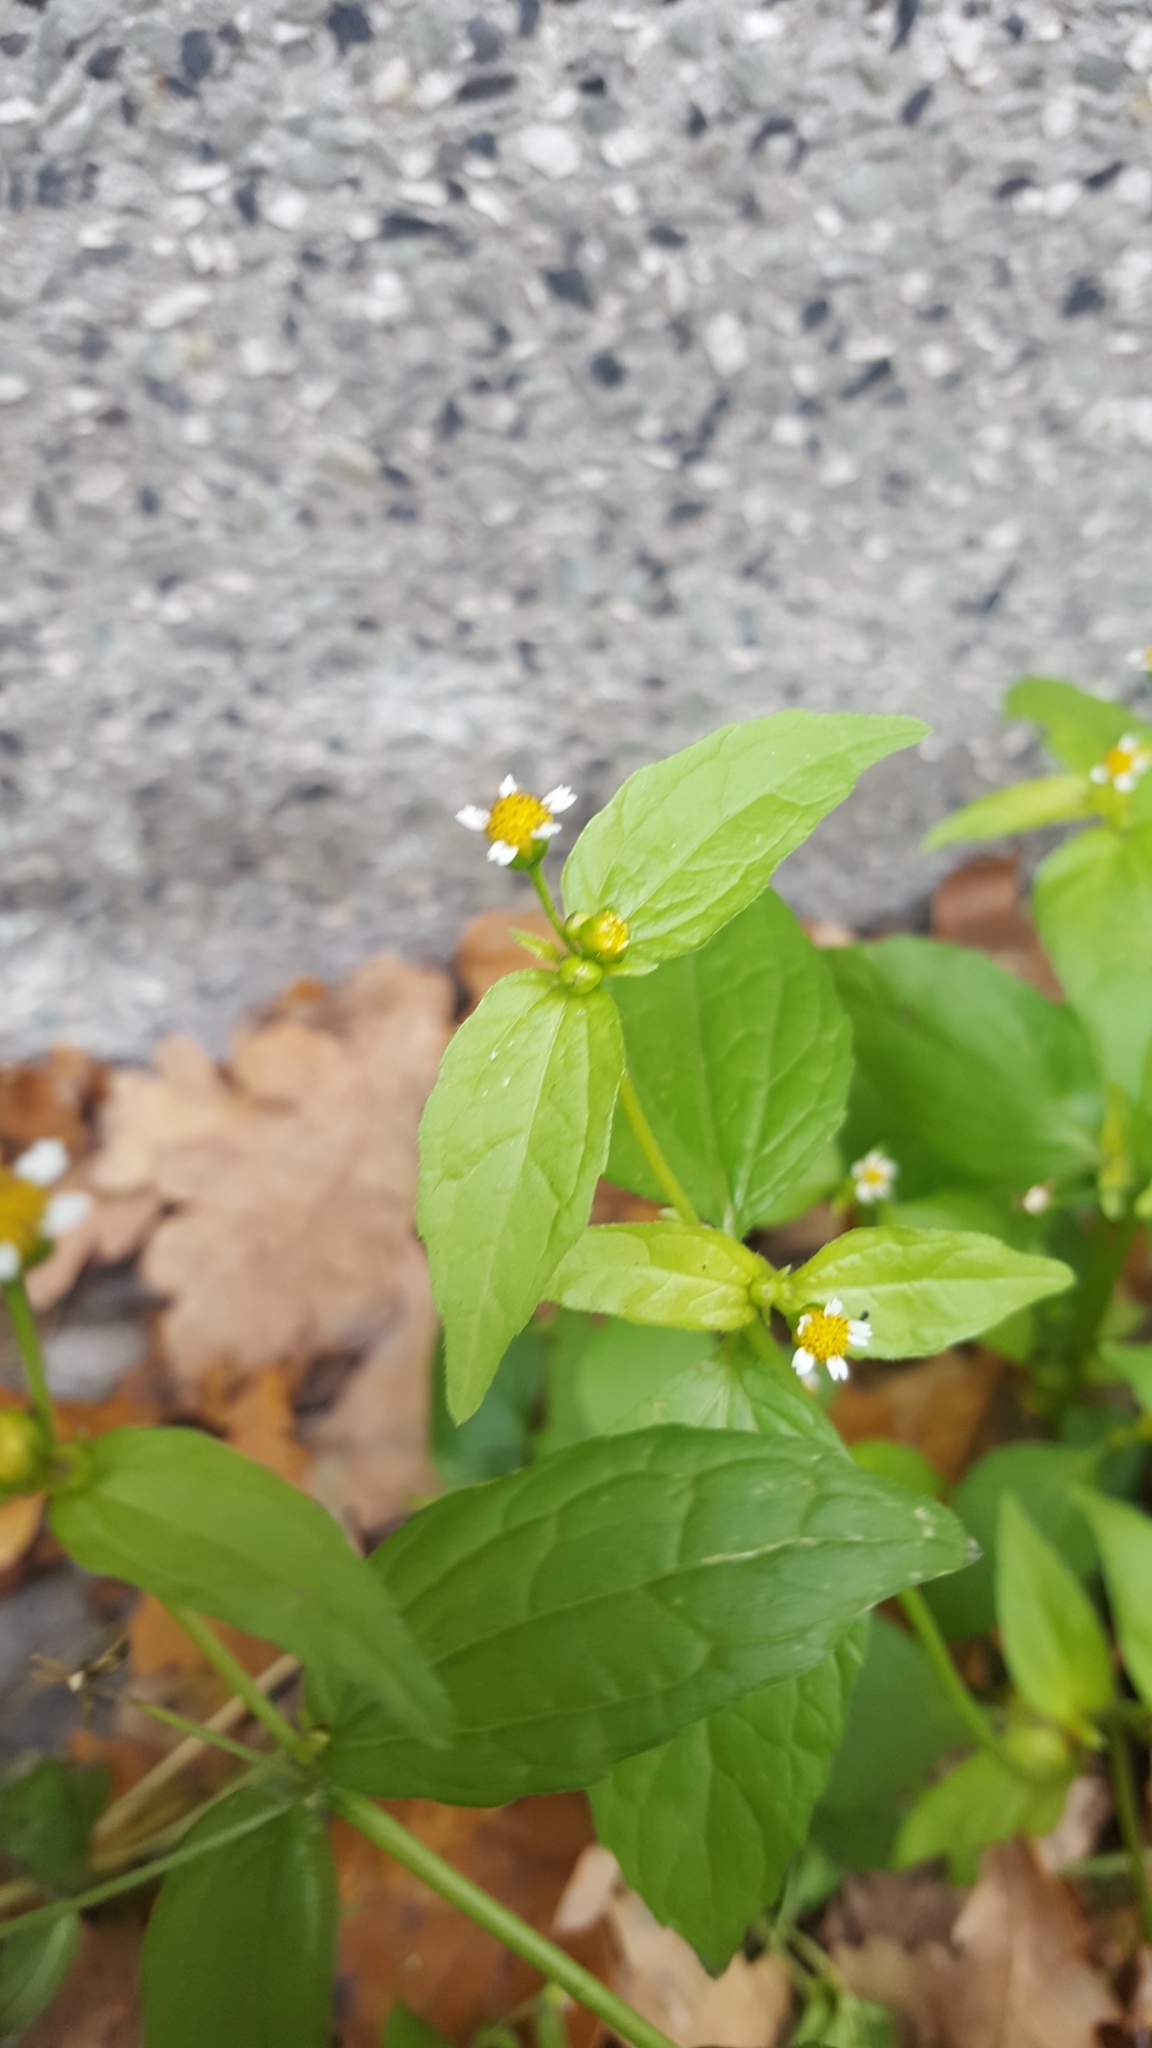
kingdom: Plantae
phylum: Tracheophyta
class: Magnoliopsida
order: Asterales
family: Asteraceae
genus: Galinsoga
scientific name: Galinsoga parviflora
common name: Gallant soldier
